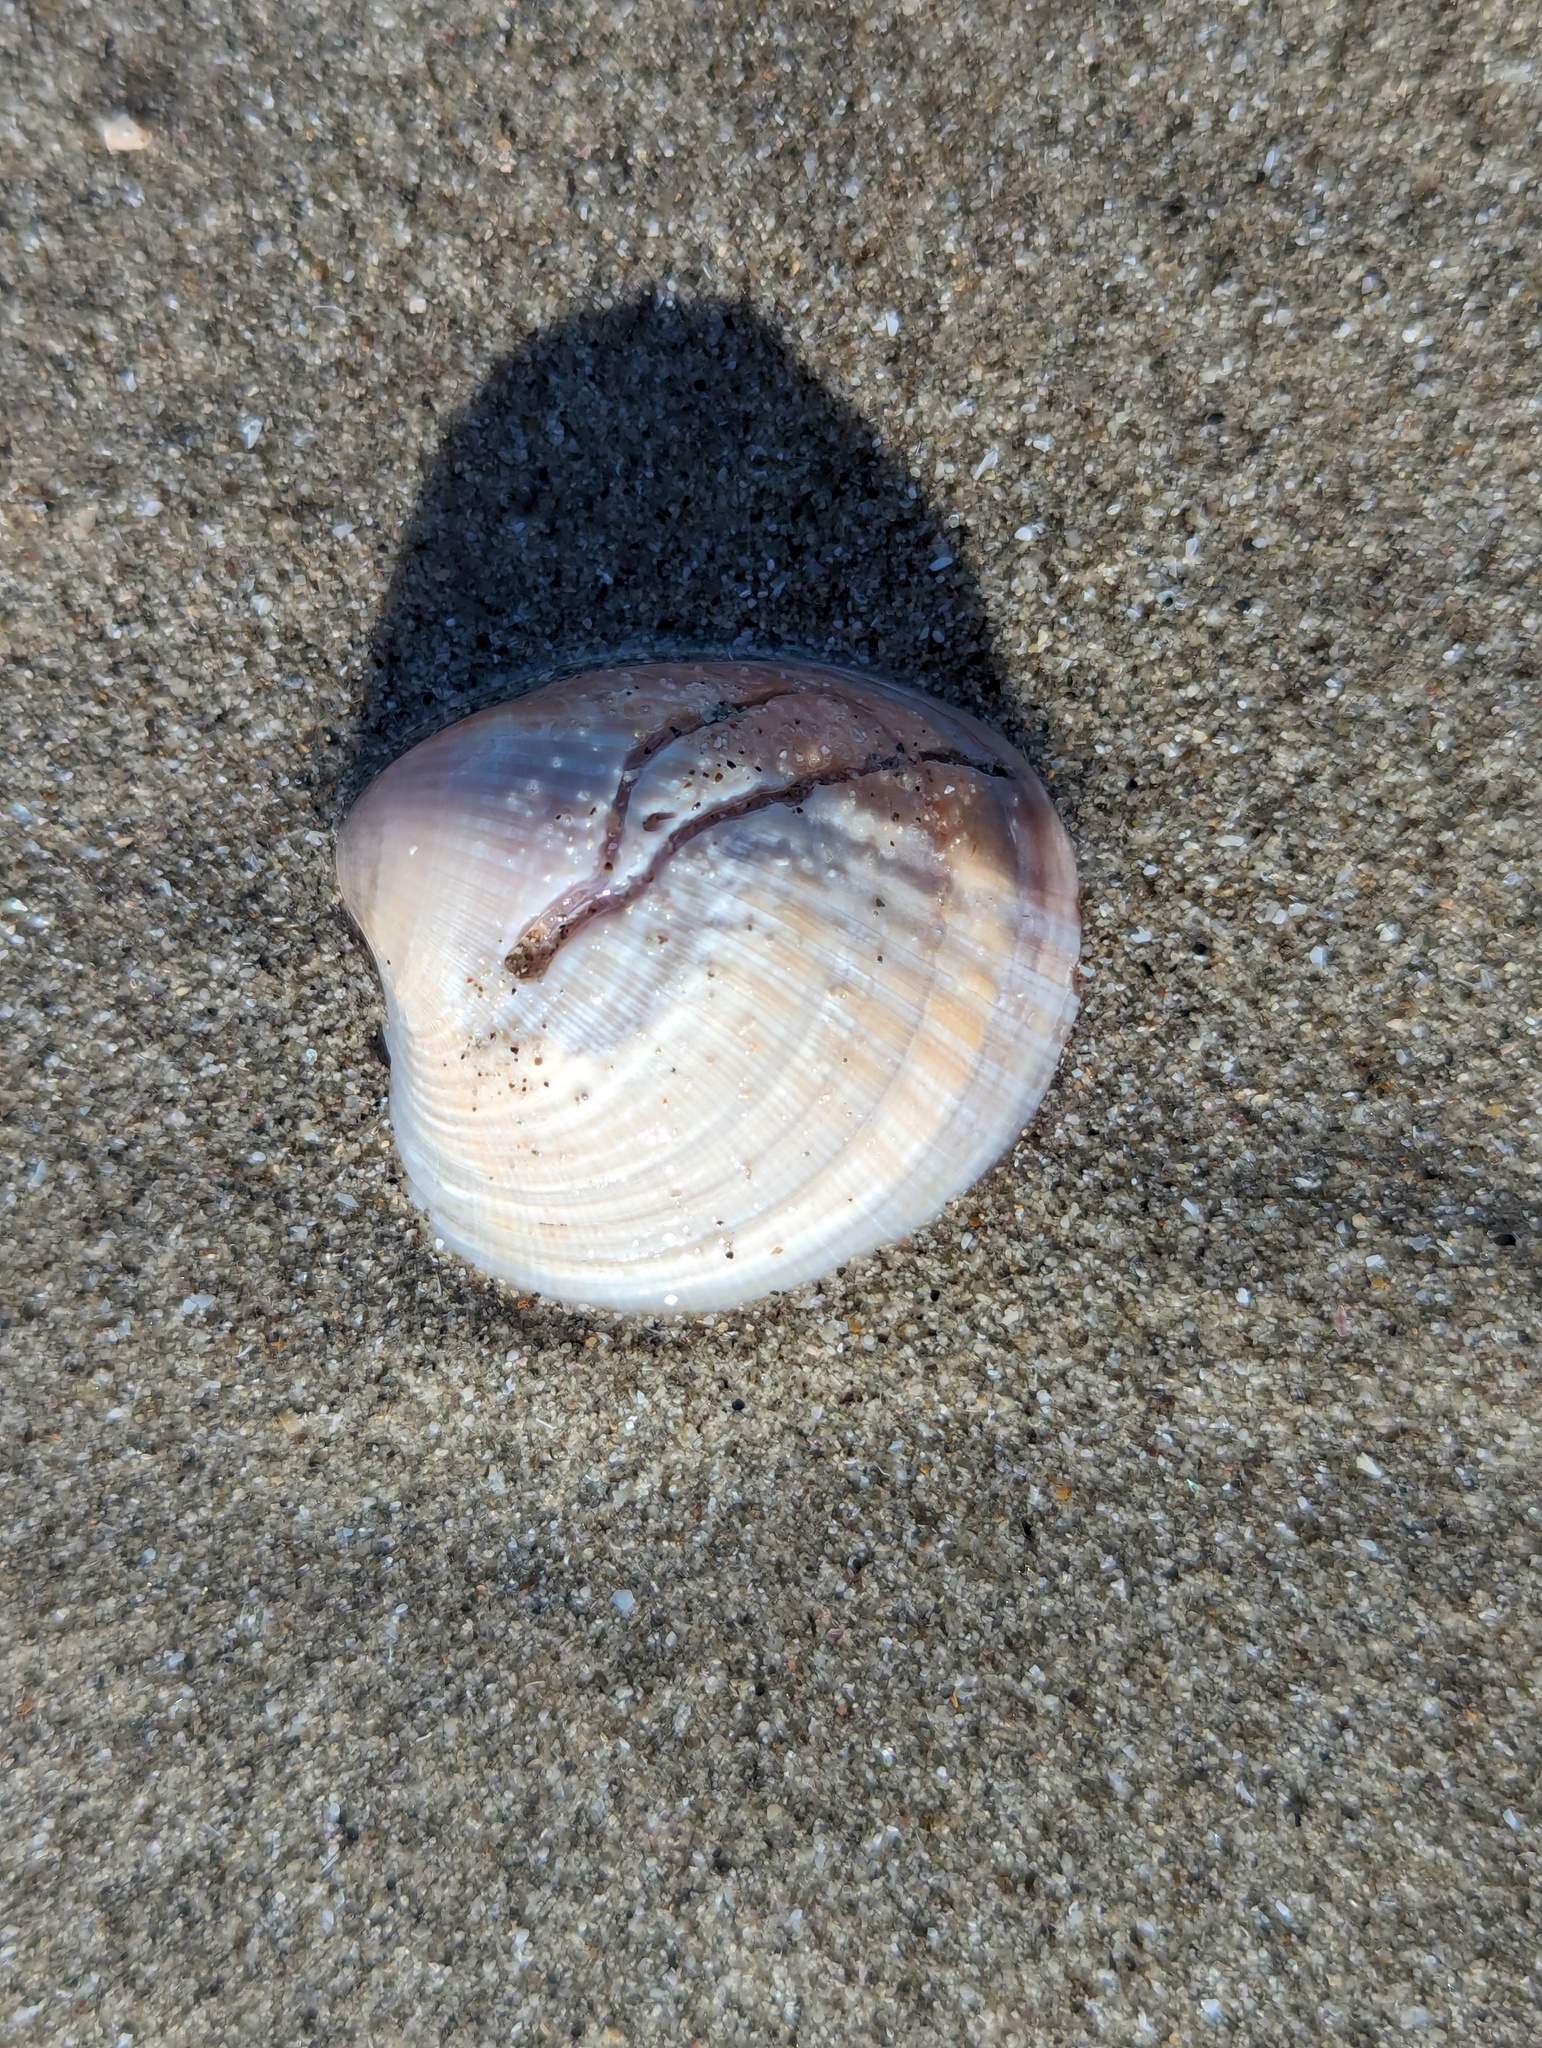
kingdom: Animalia
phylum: Mollusca
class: Bivalvia
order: Venerida
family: Veneridae
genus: Austrovenus
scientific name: Austrovenus stutchburyi
